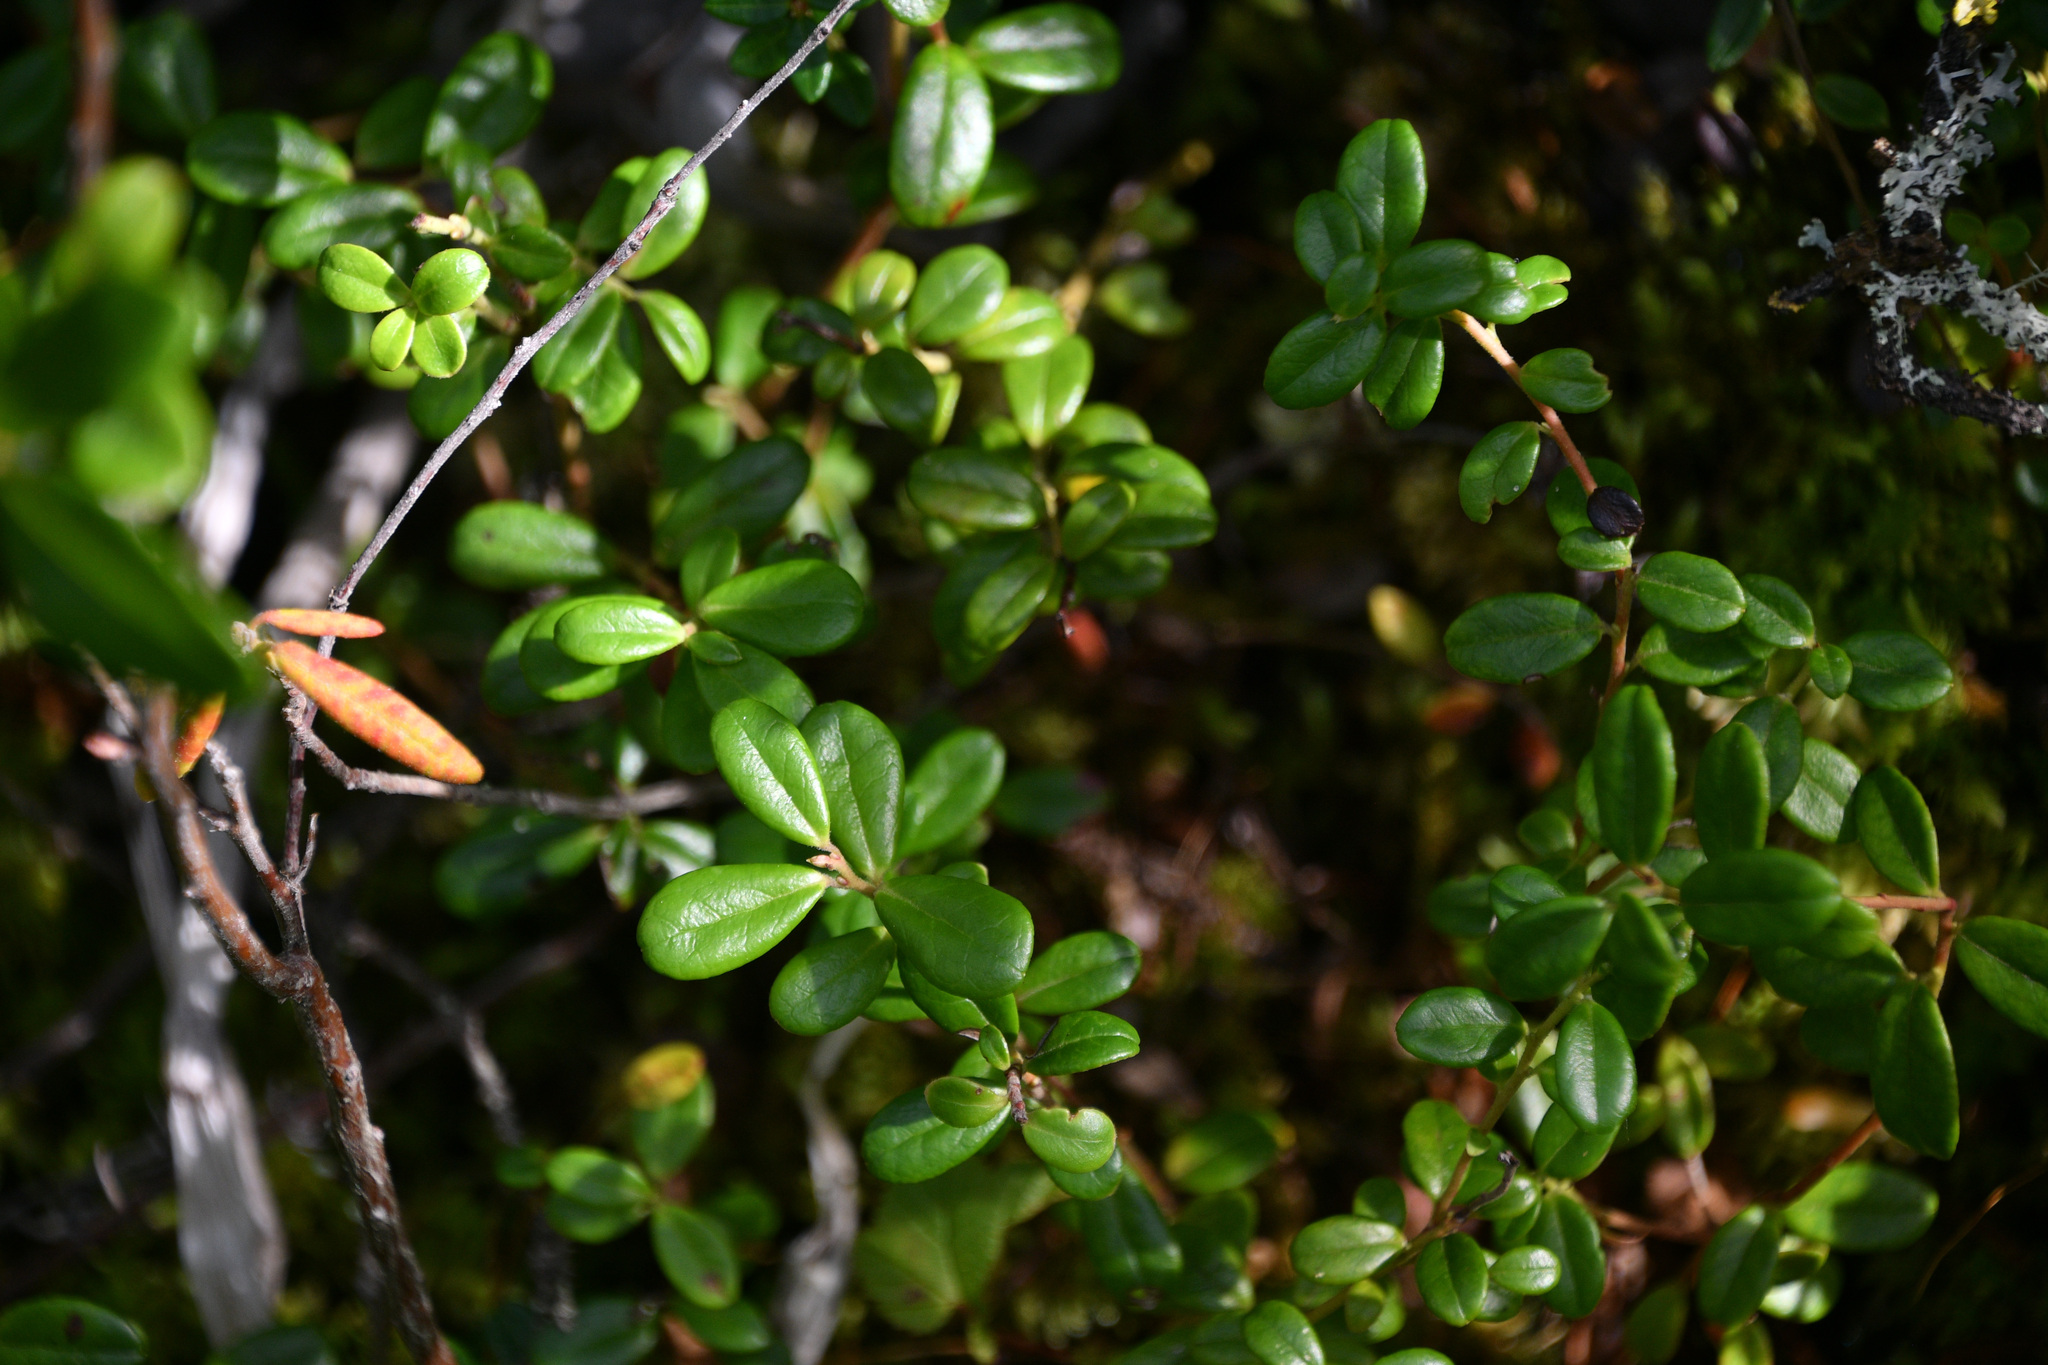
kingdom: Plantae
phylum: Tracheophyta
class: Magnoliopsida
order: Ericales
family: Ericaceae
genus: Vaccinium
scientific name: Vaccinium vitis-idaea
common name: Cowberry
